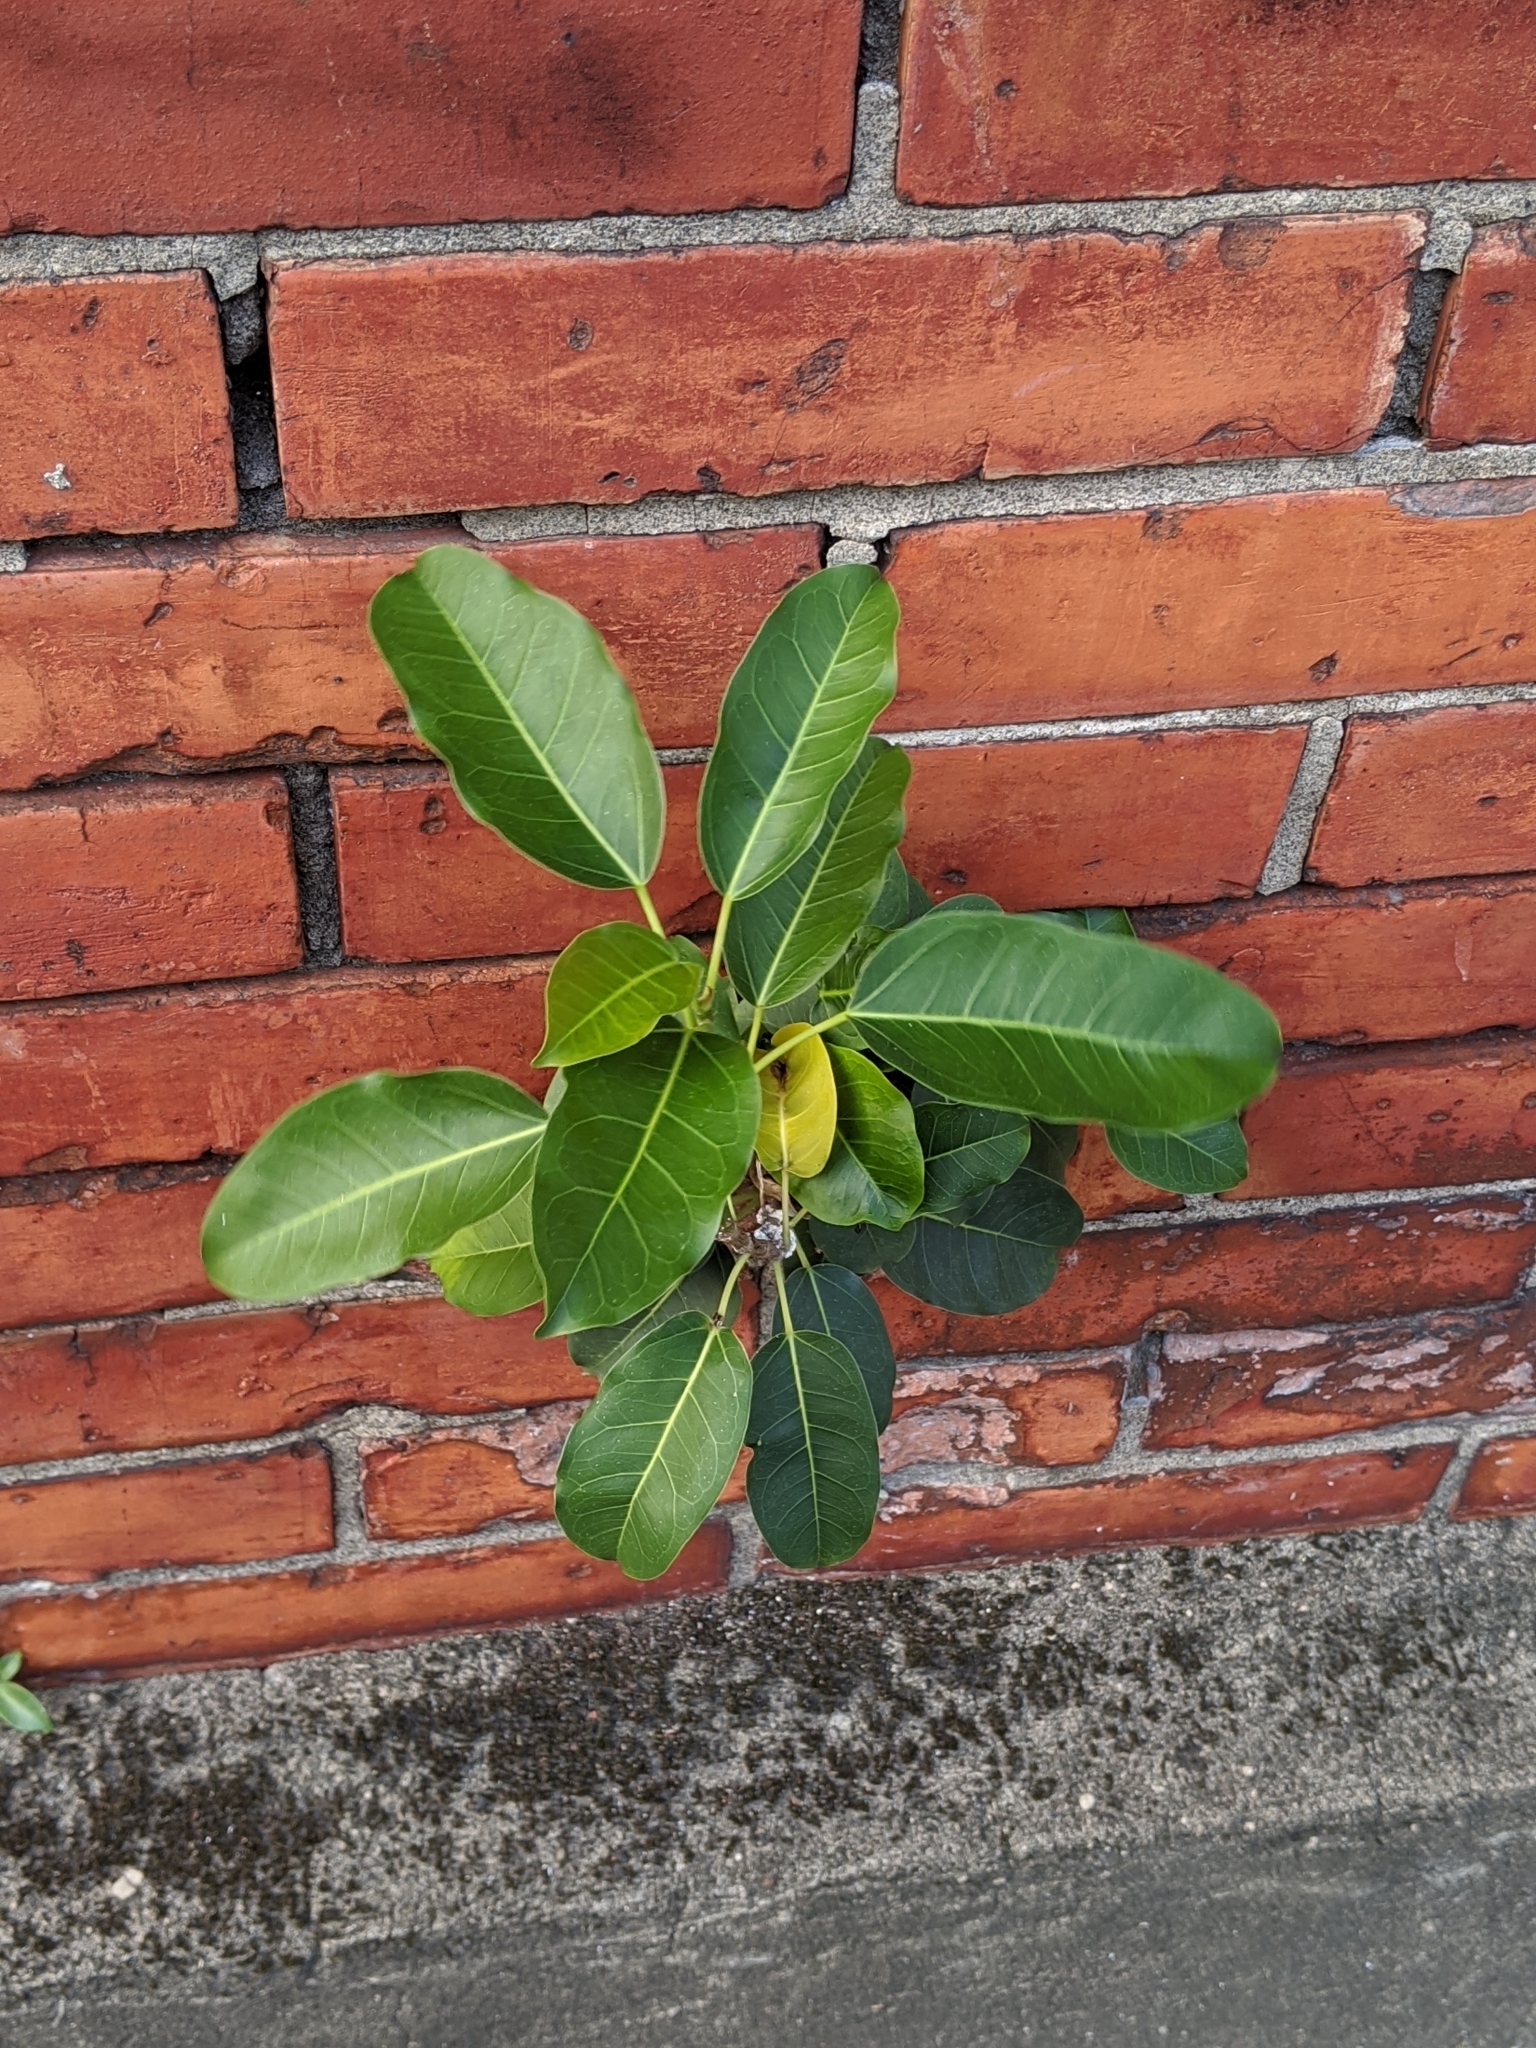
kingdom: Plantae
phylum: Tracheophyta
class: Magnoliopsida
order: Rosales
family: Moraceae
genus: Ficus
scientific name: Ficus subpisocarpa
